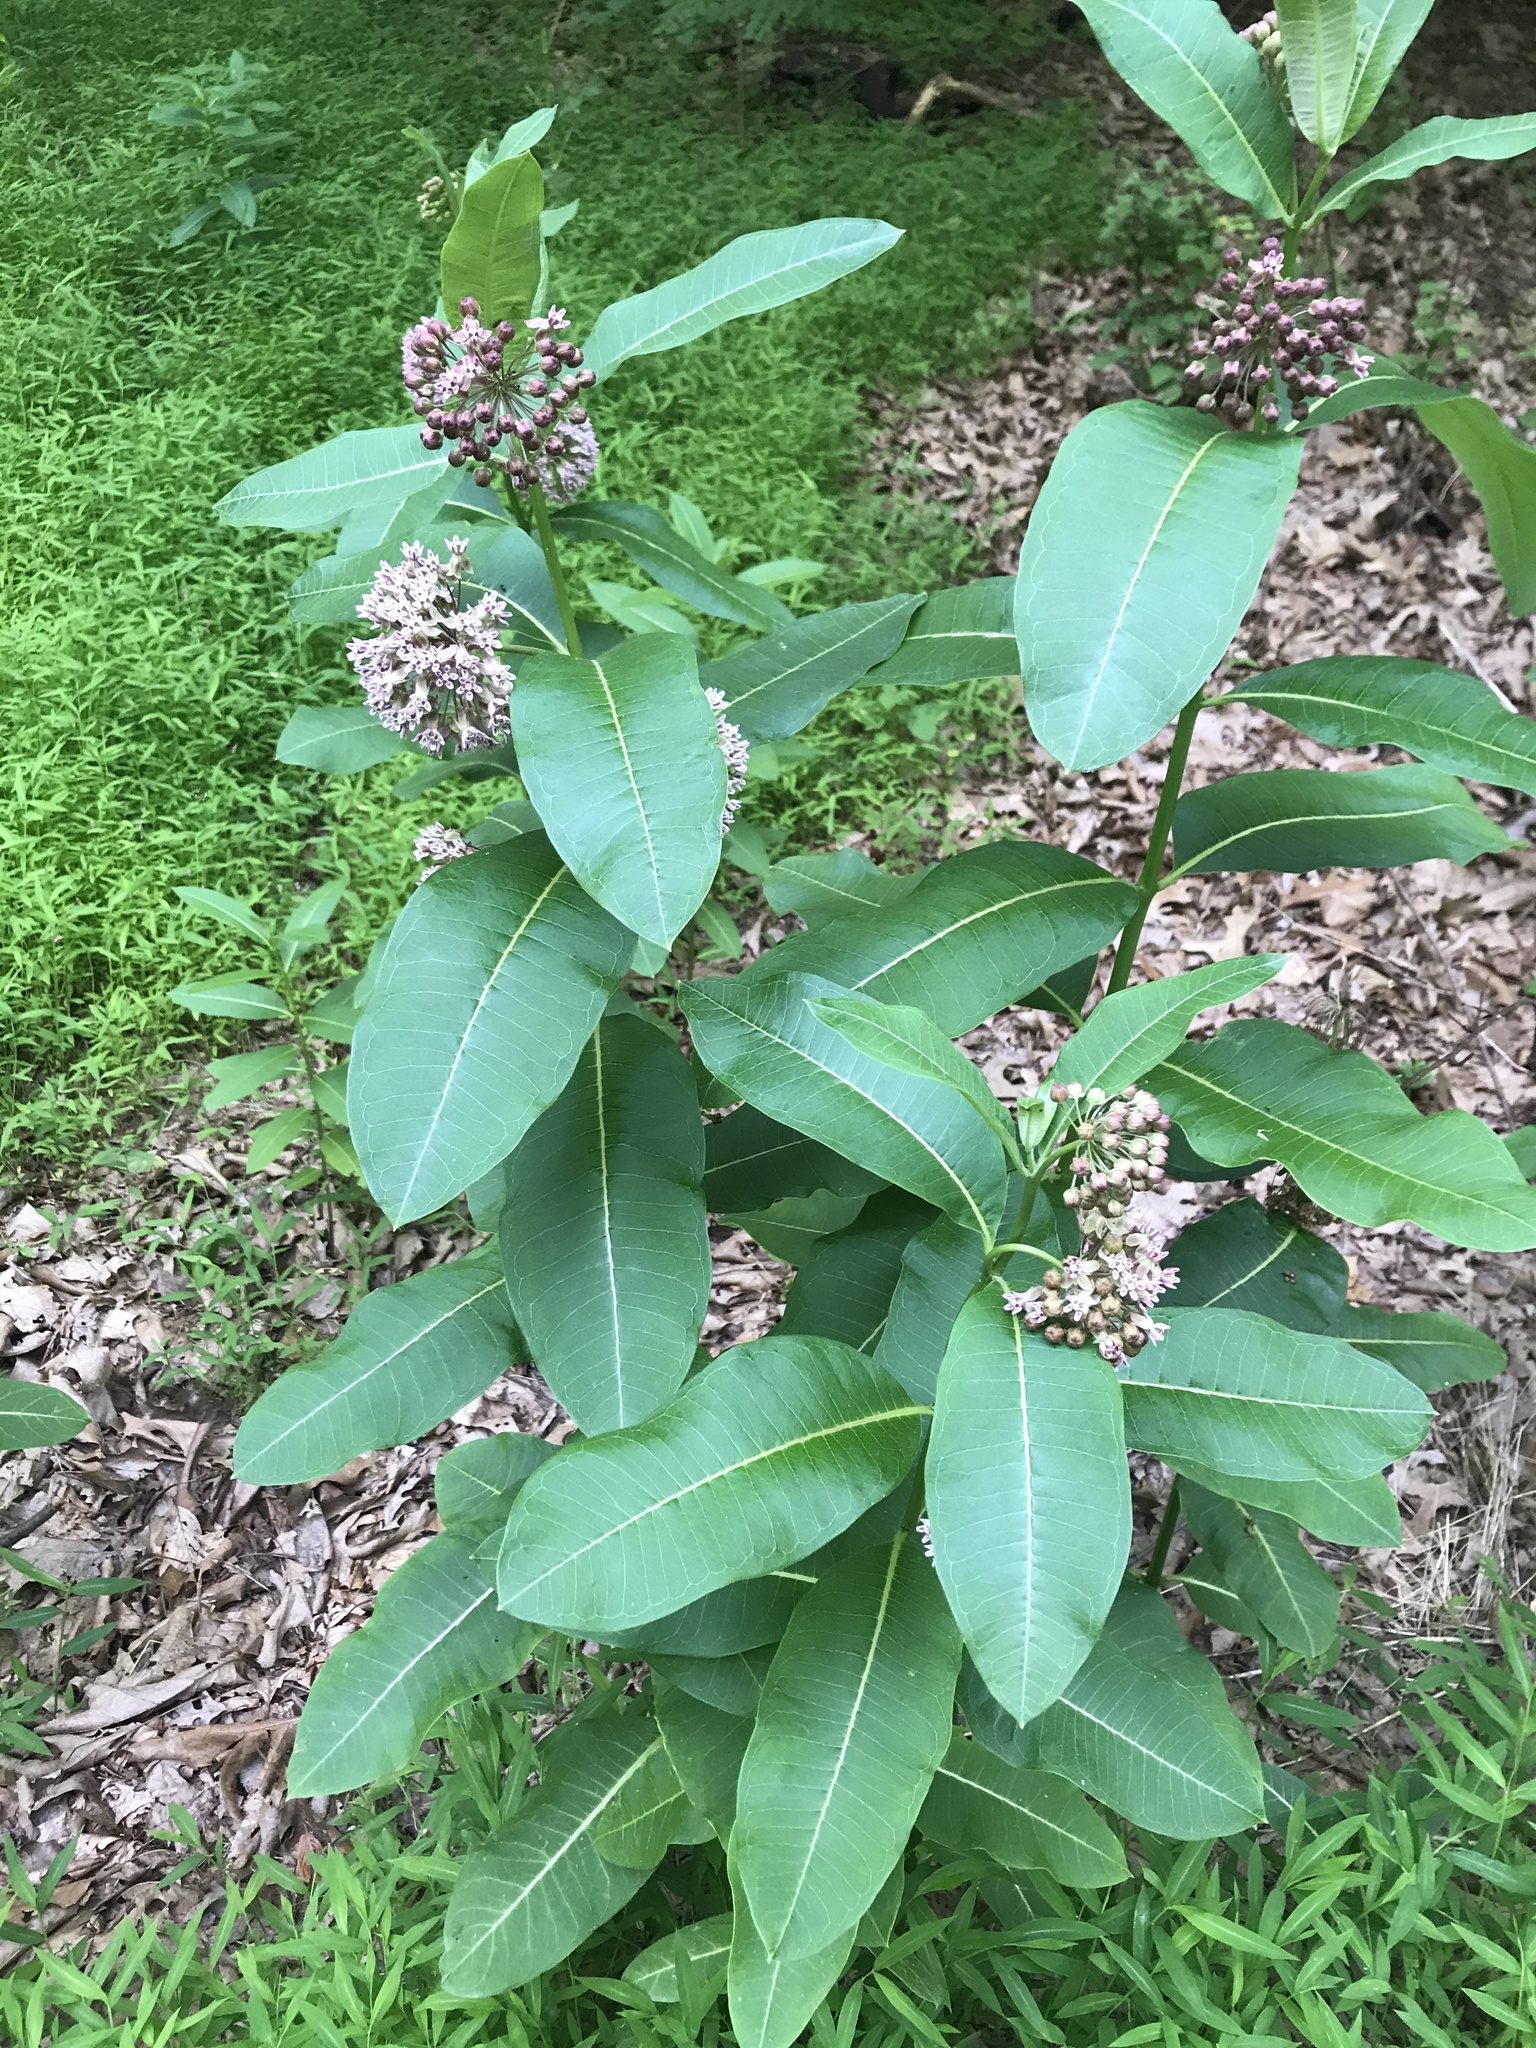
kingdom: Plantae
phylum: Tracheophyta
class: Magnoliopsida
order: Gentianales
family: Apocynaceae
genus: Asclepias
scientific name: Asclepias syriaca
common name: Common milkweed
